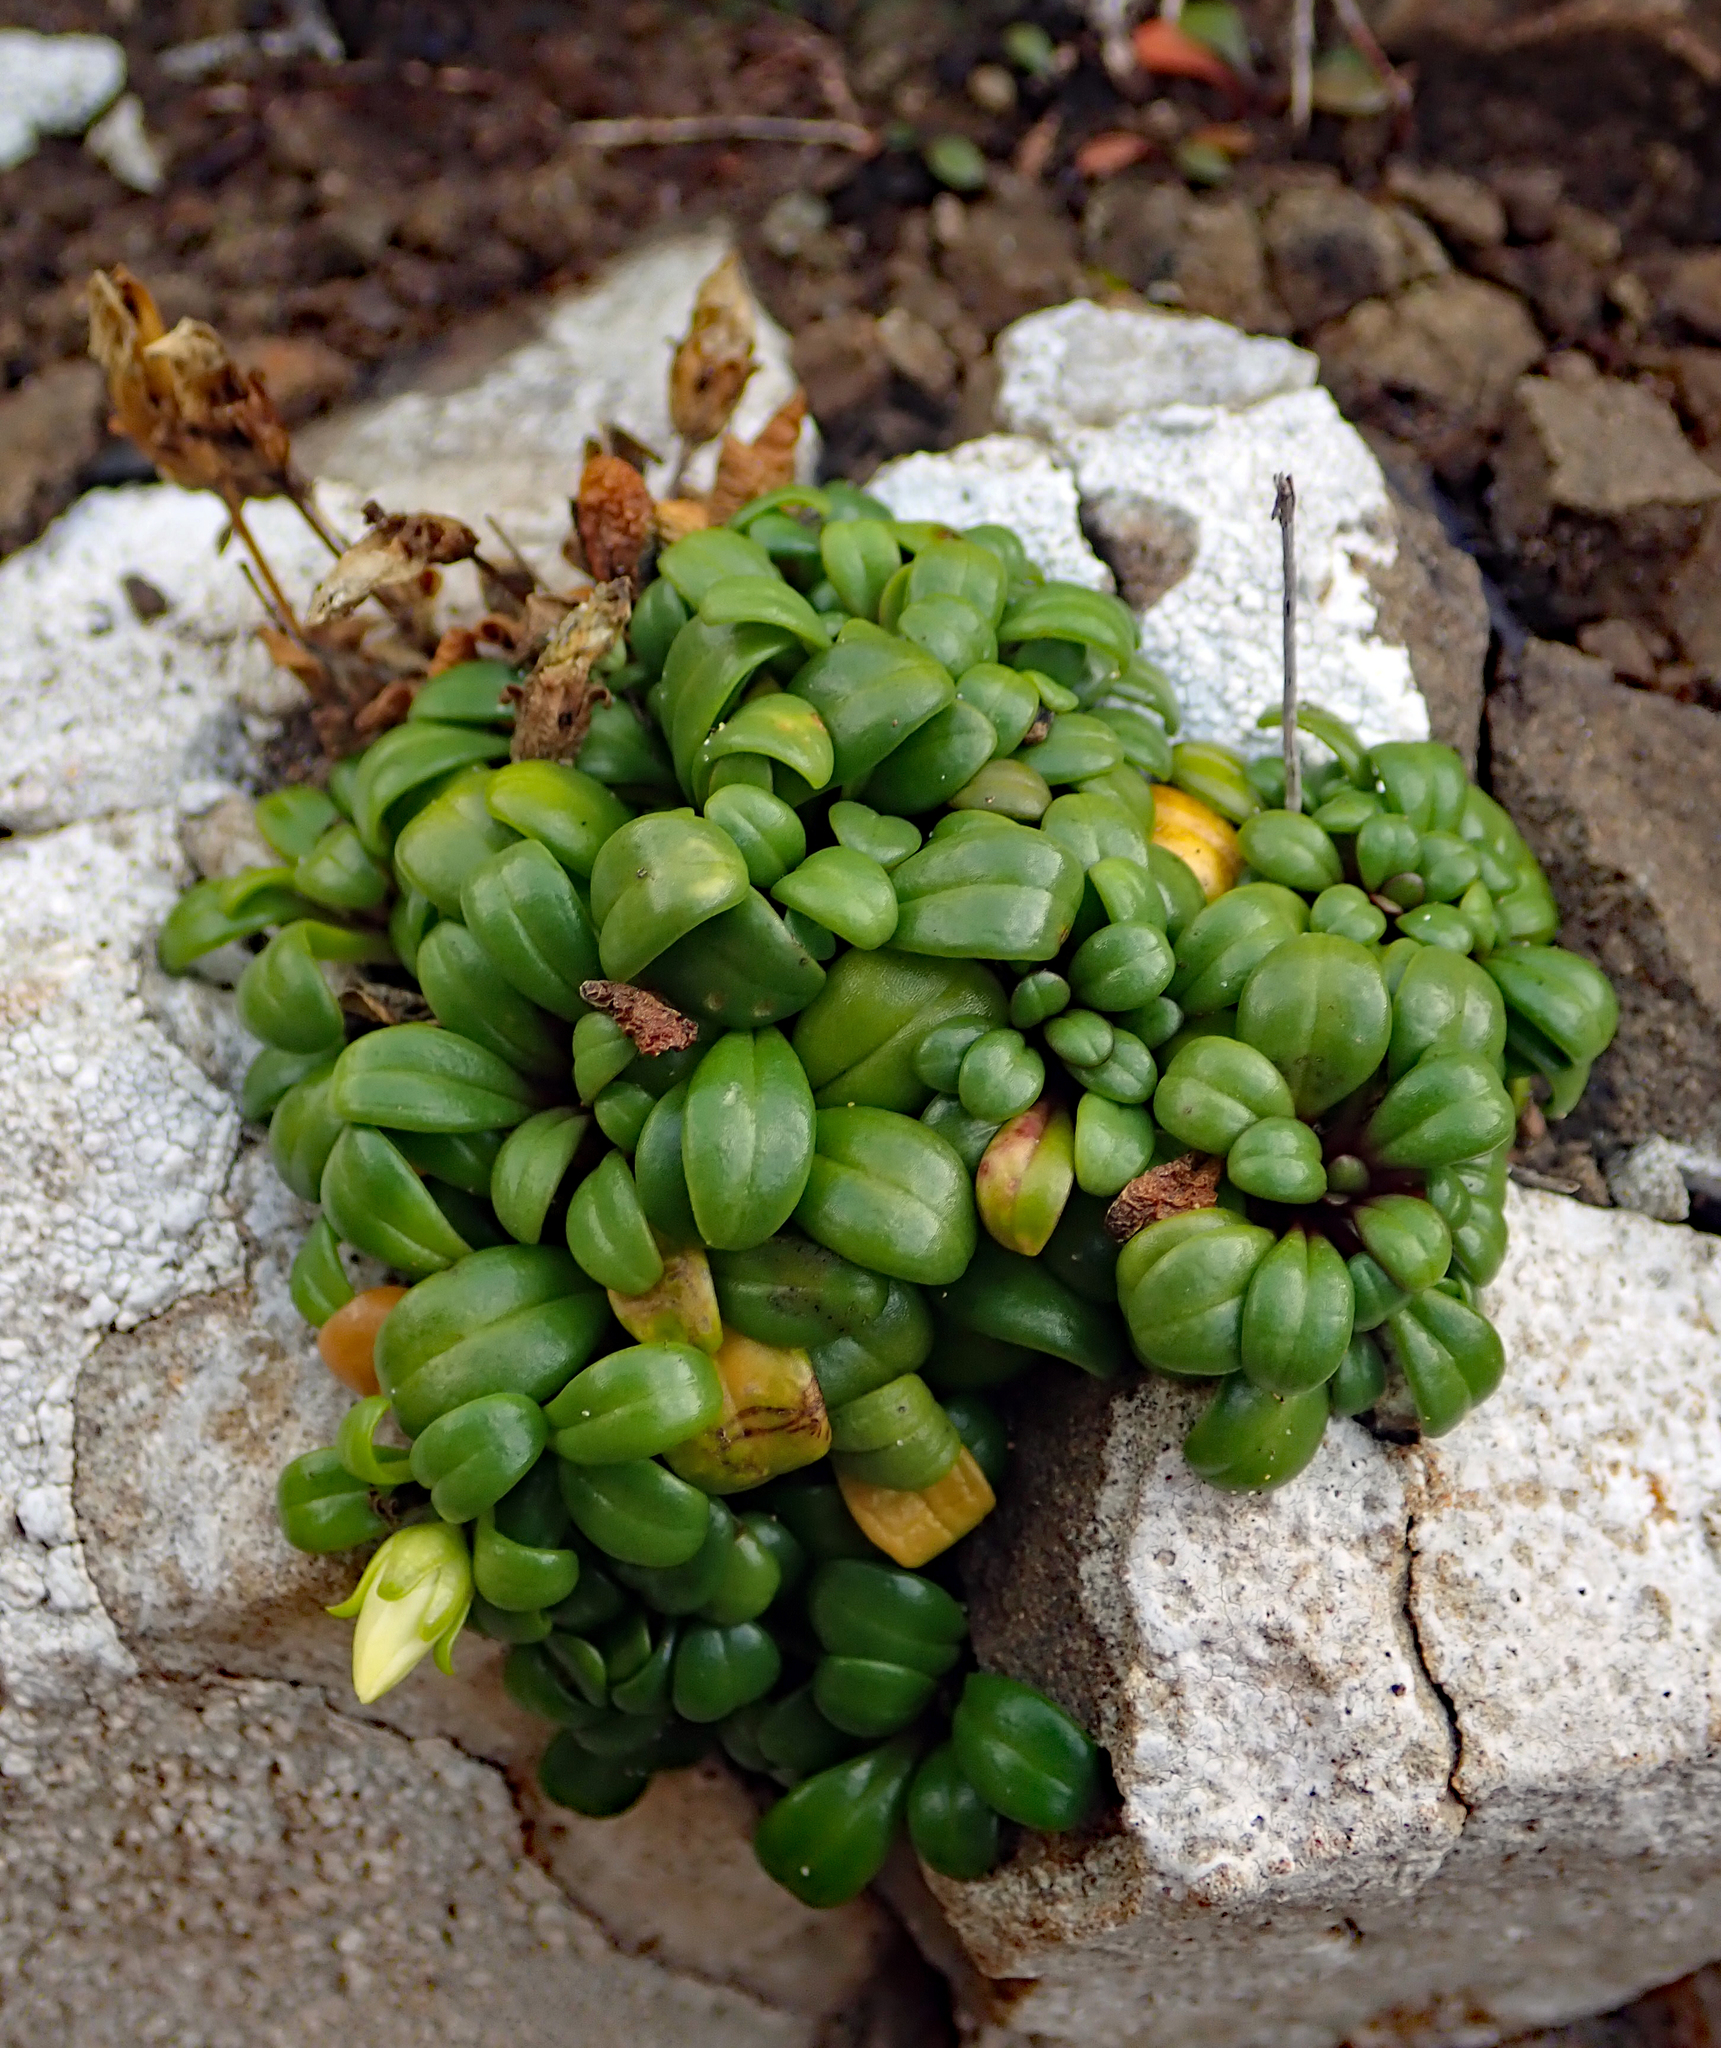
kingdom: Plantae
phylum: Tracheophyta
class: Magnoliopsida
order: Gentianales
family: Gentianaceae
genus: Gentianella
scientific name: Gentianella saxosa
